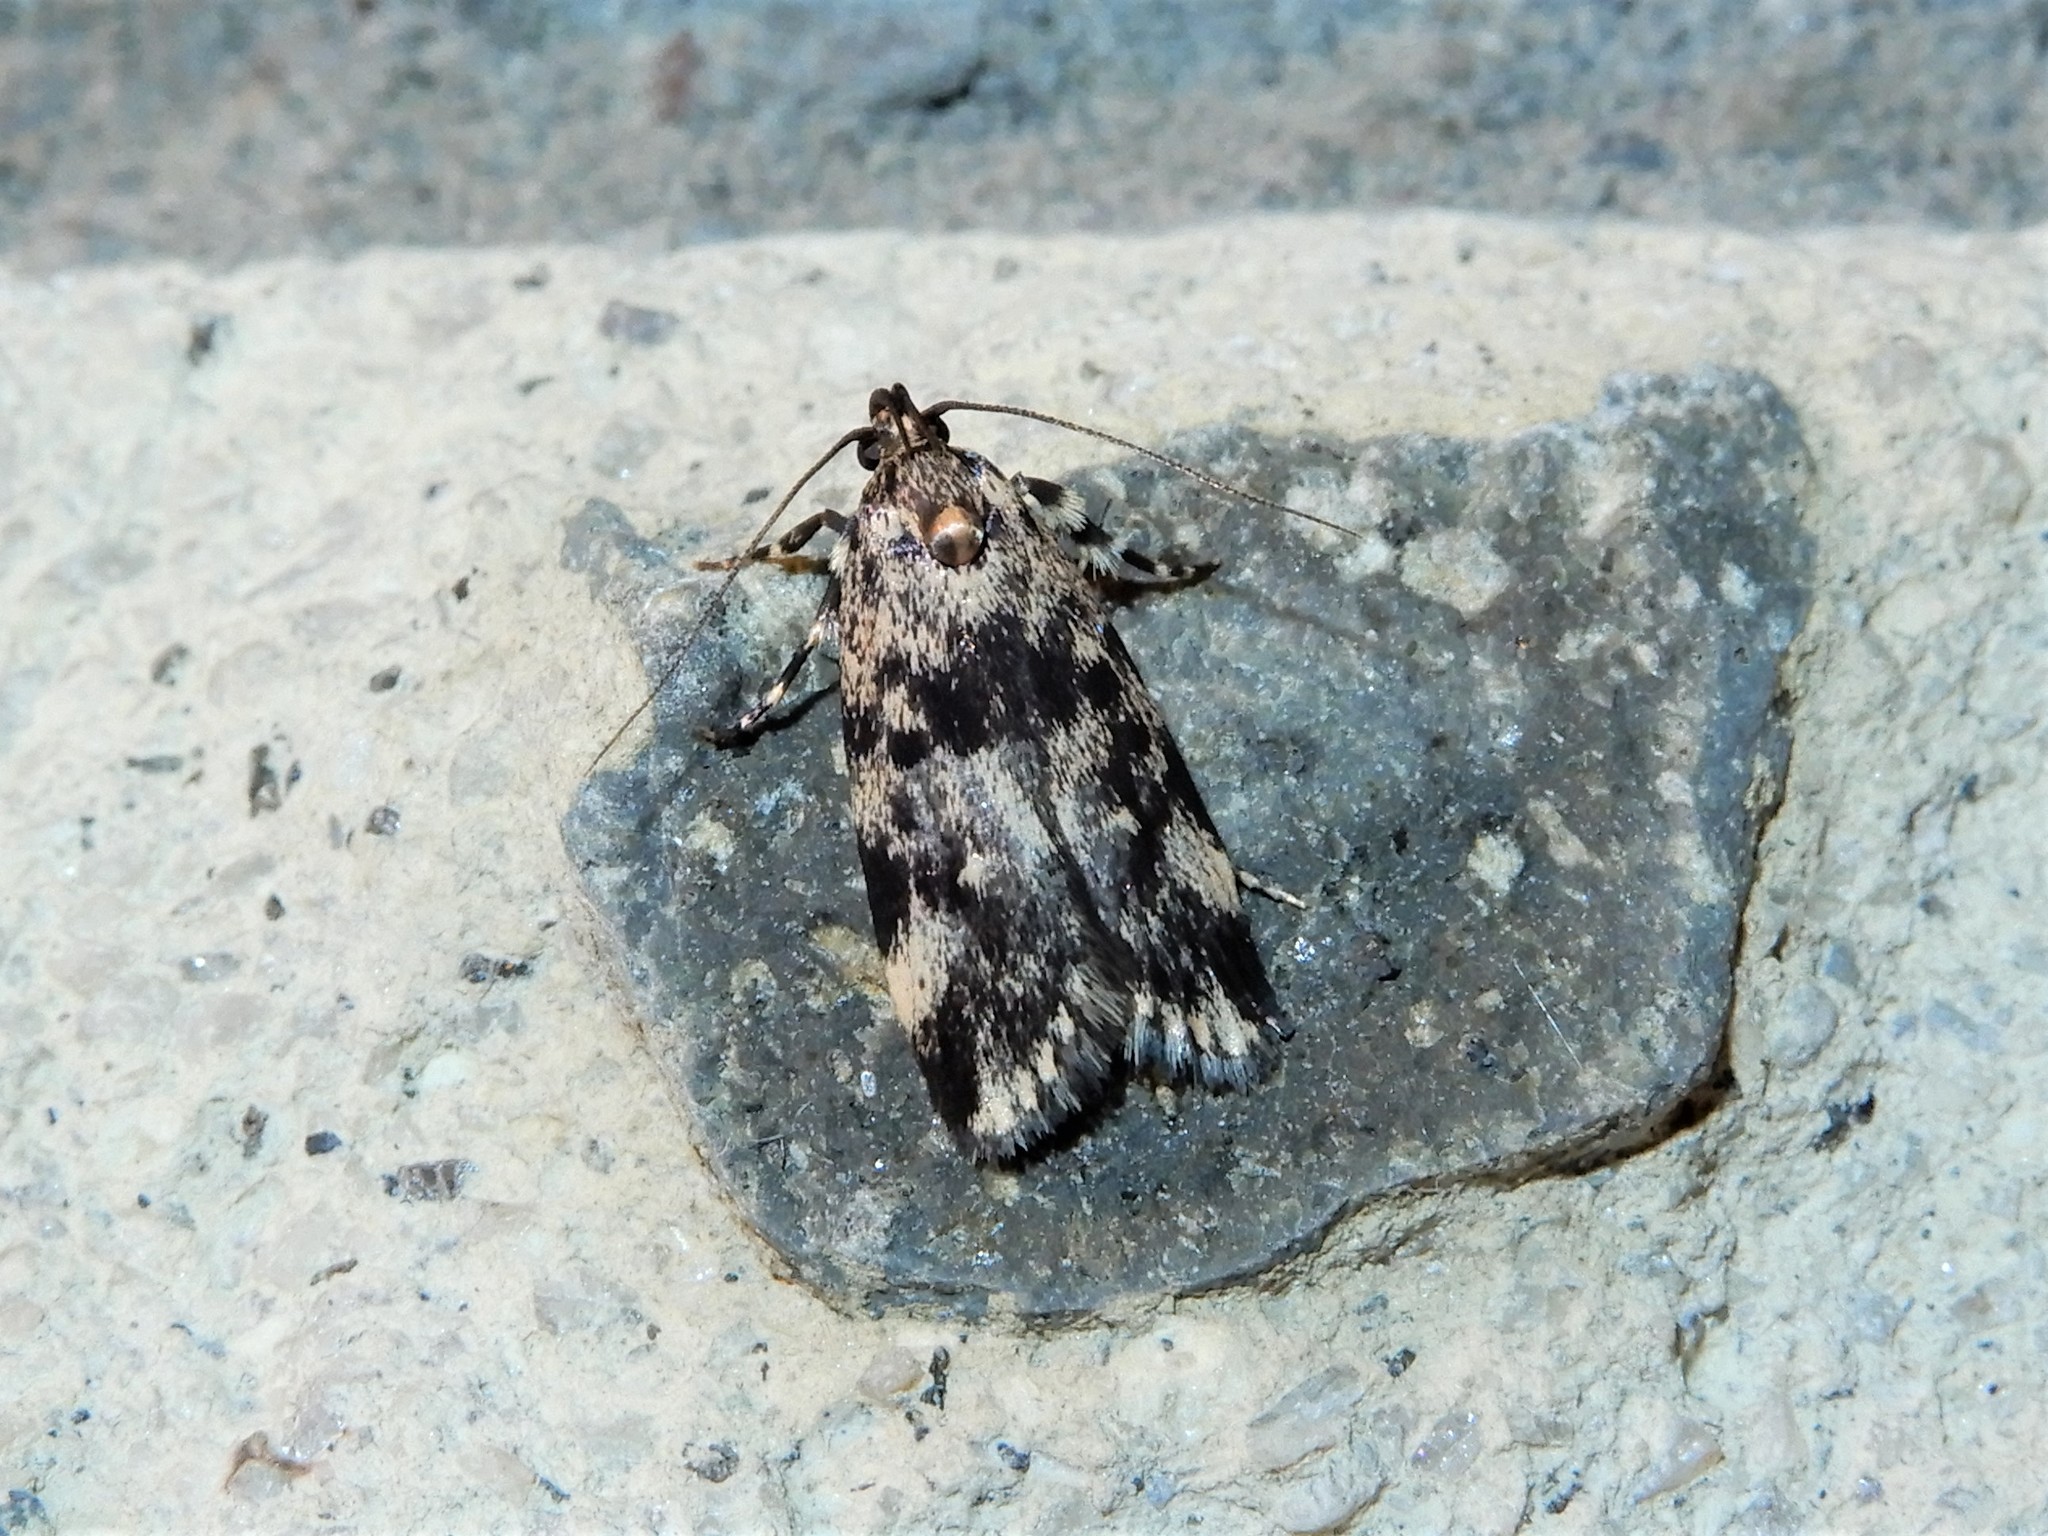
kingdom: Animalia
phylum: Arthropoda
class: Insecta
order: Lepidoptera
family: Oecophoridae
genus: Barea
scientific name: Barea codrella
